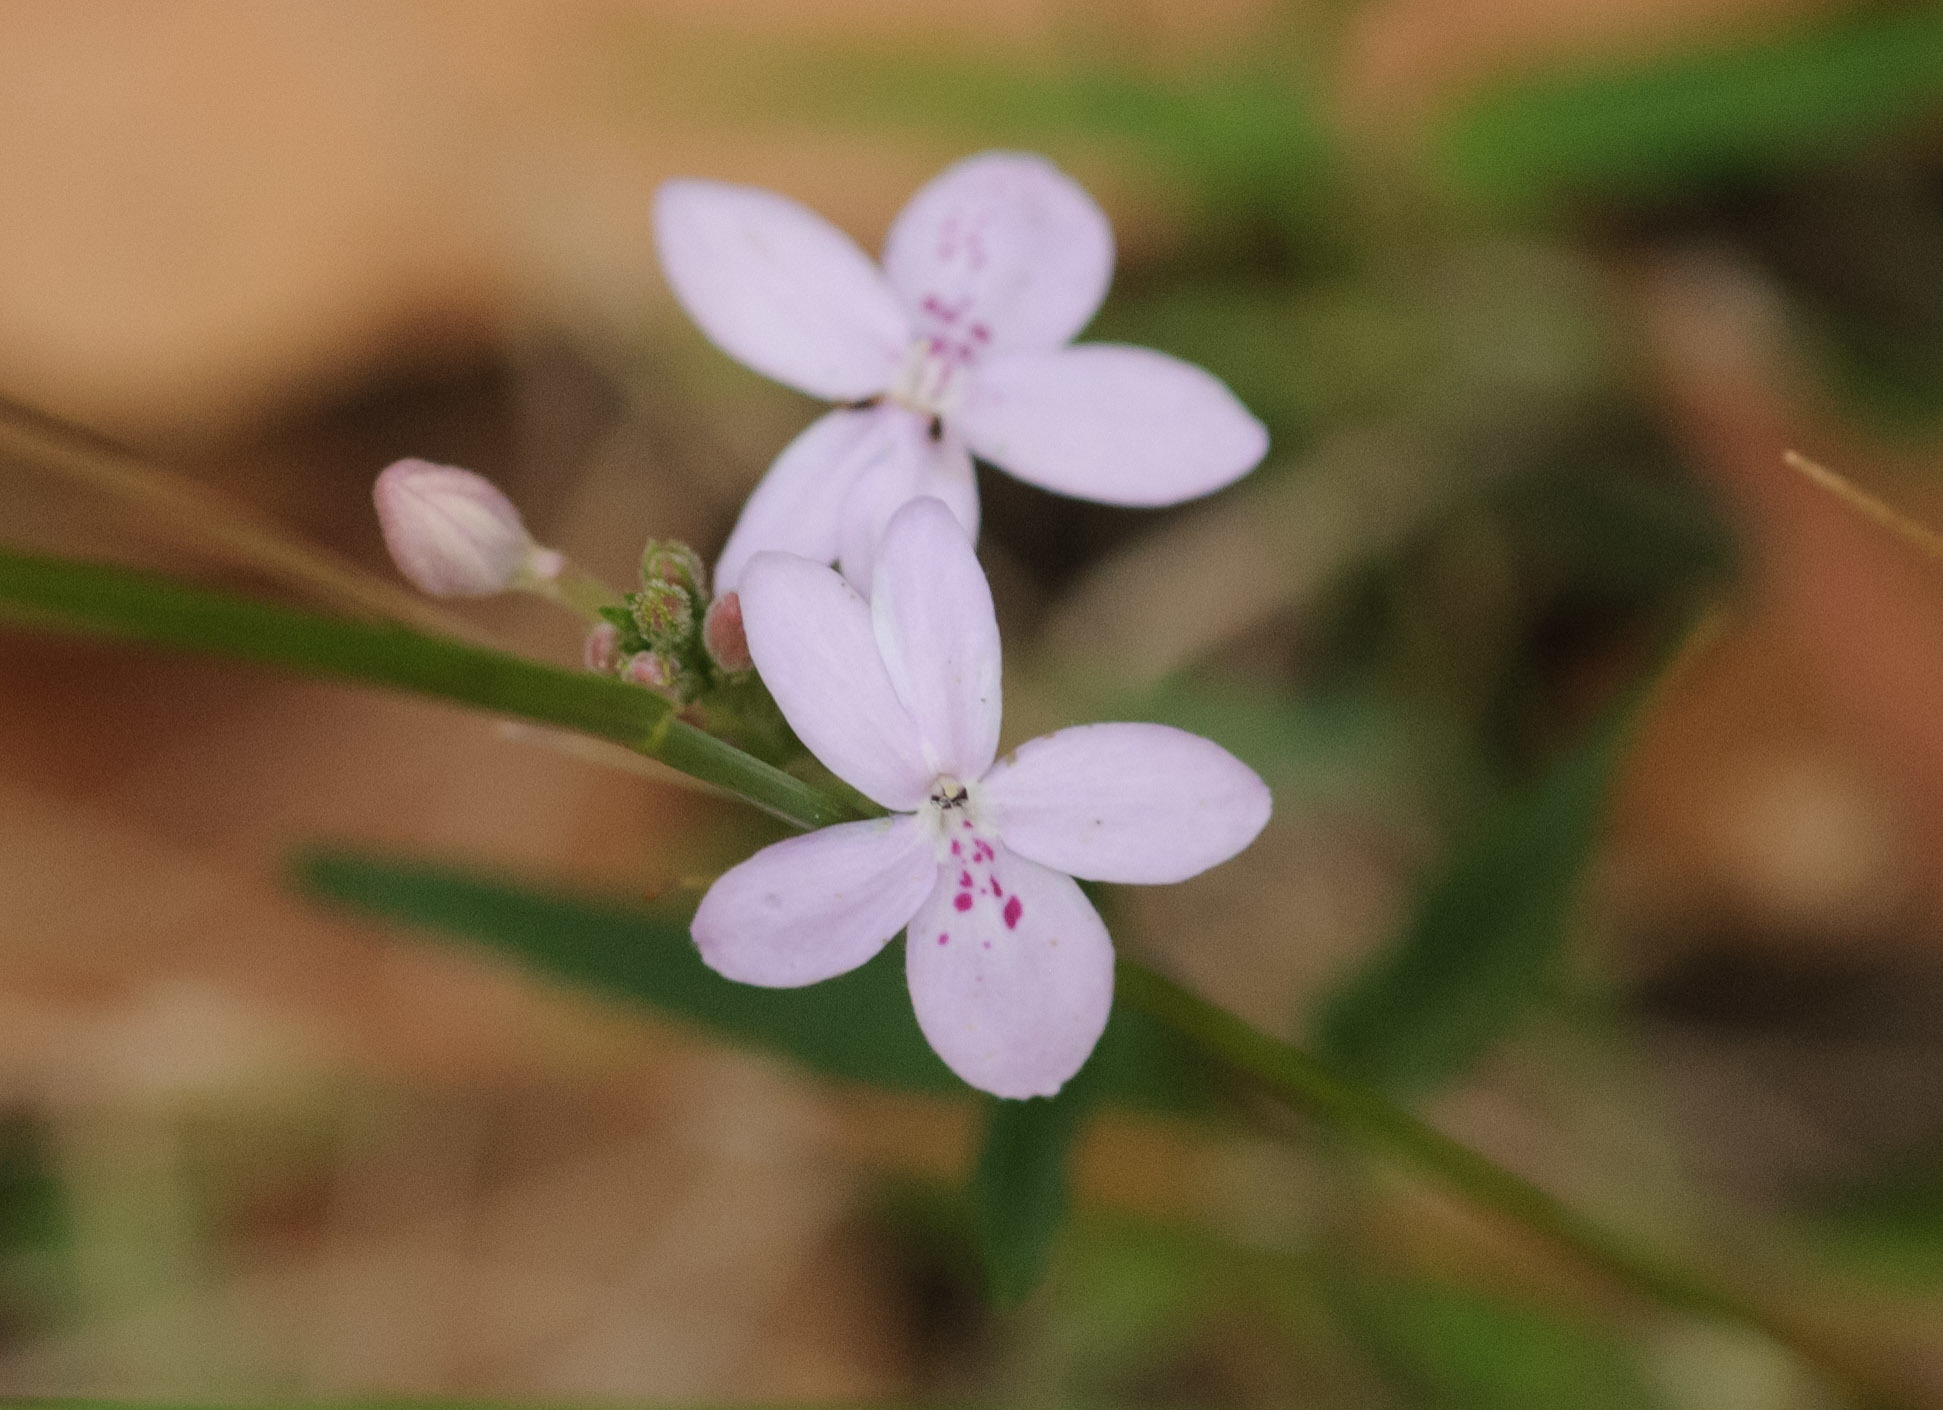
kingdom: Plantae
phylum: Tracheophyta
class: Magnoliopsida
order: Lamiales
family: Acanthaceae
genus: Pseuderanthemum
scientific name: Pseuderanthemum variabile
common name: Night and afternoon
